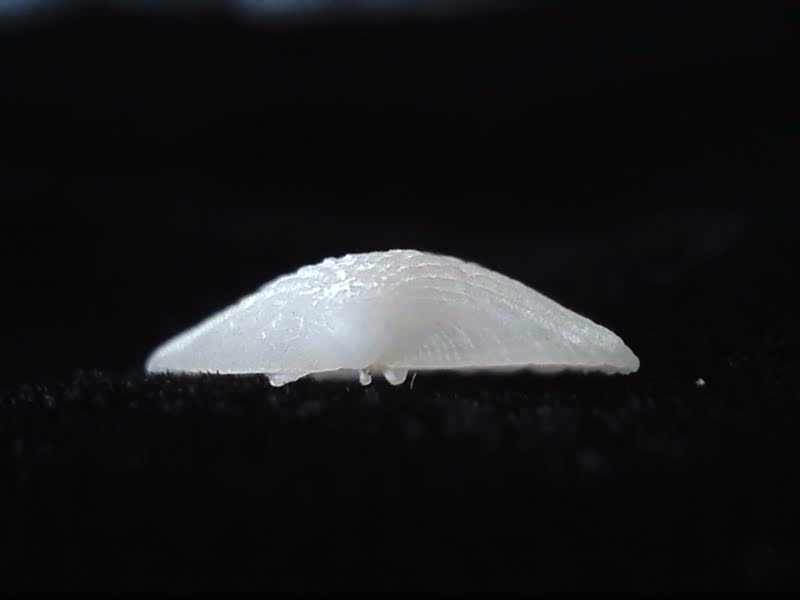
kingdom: Animalia
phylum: Mollusca
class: Bivalvia
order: Galeommatida
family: Lasaeidae
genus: Myllita
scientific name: Myllita stowei
